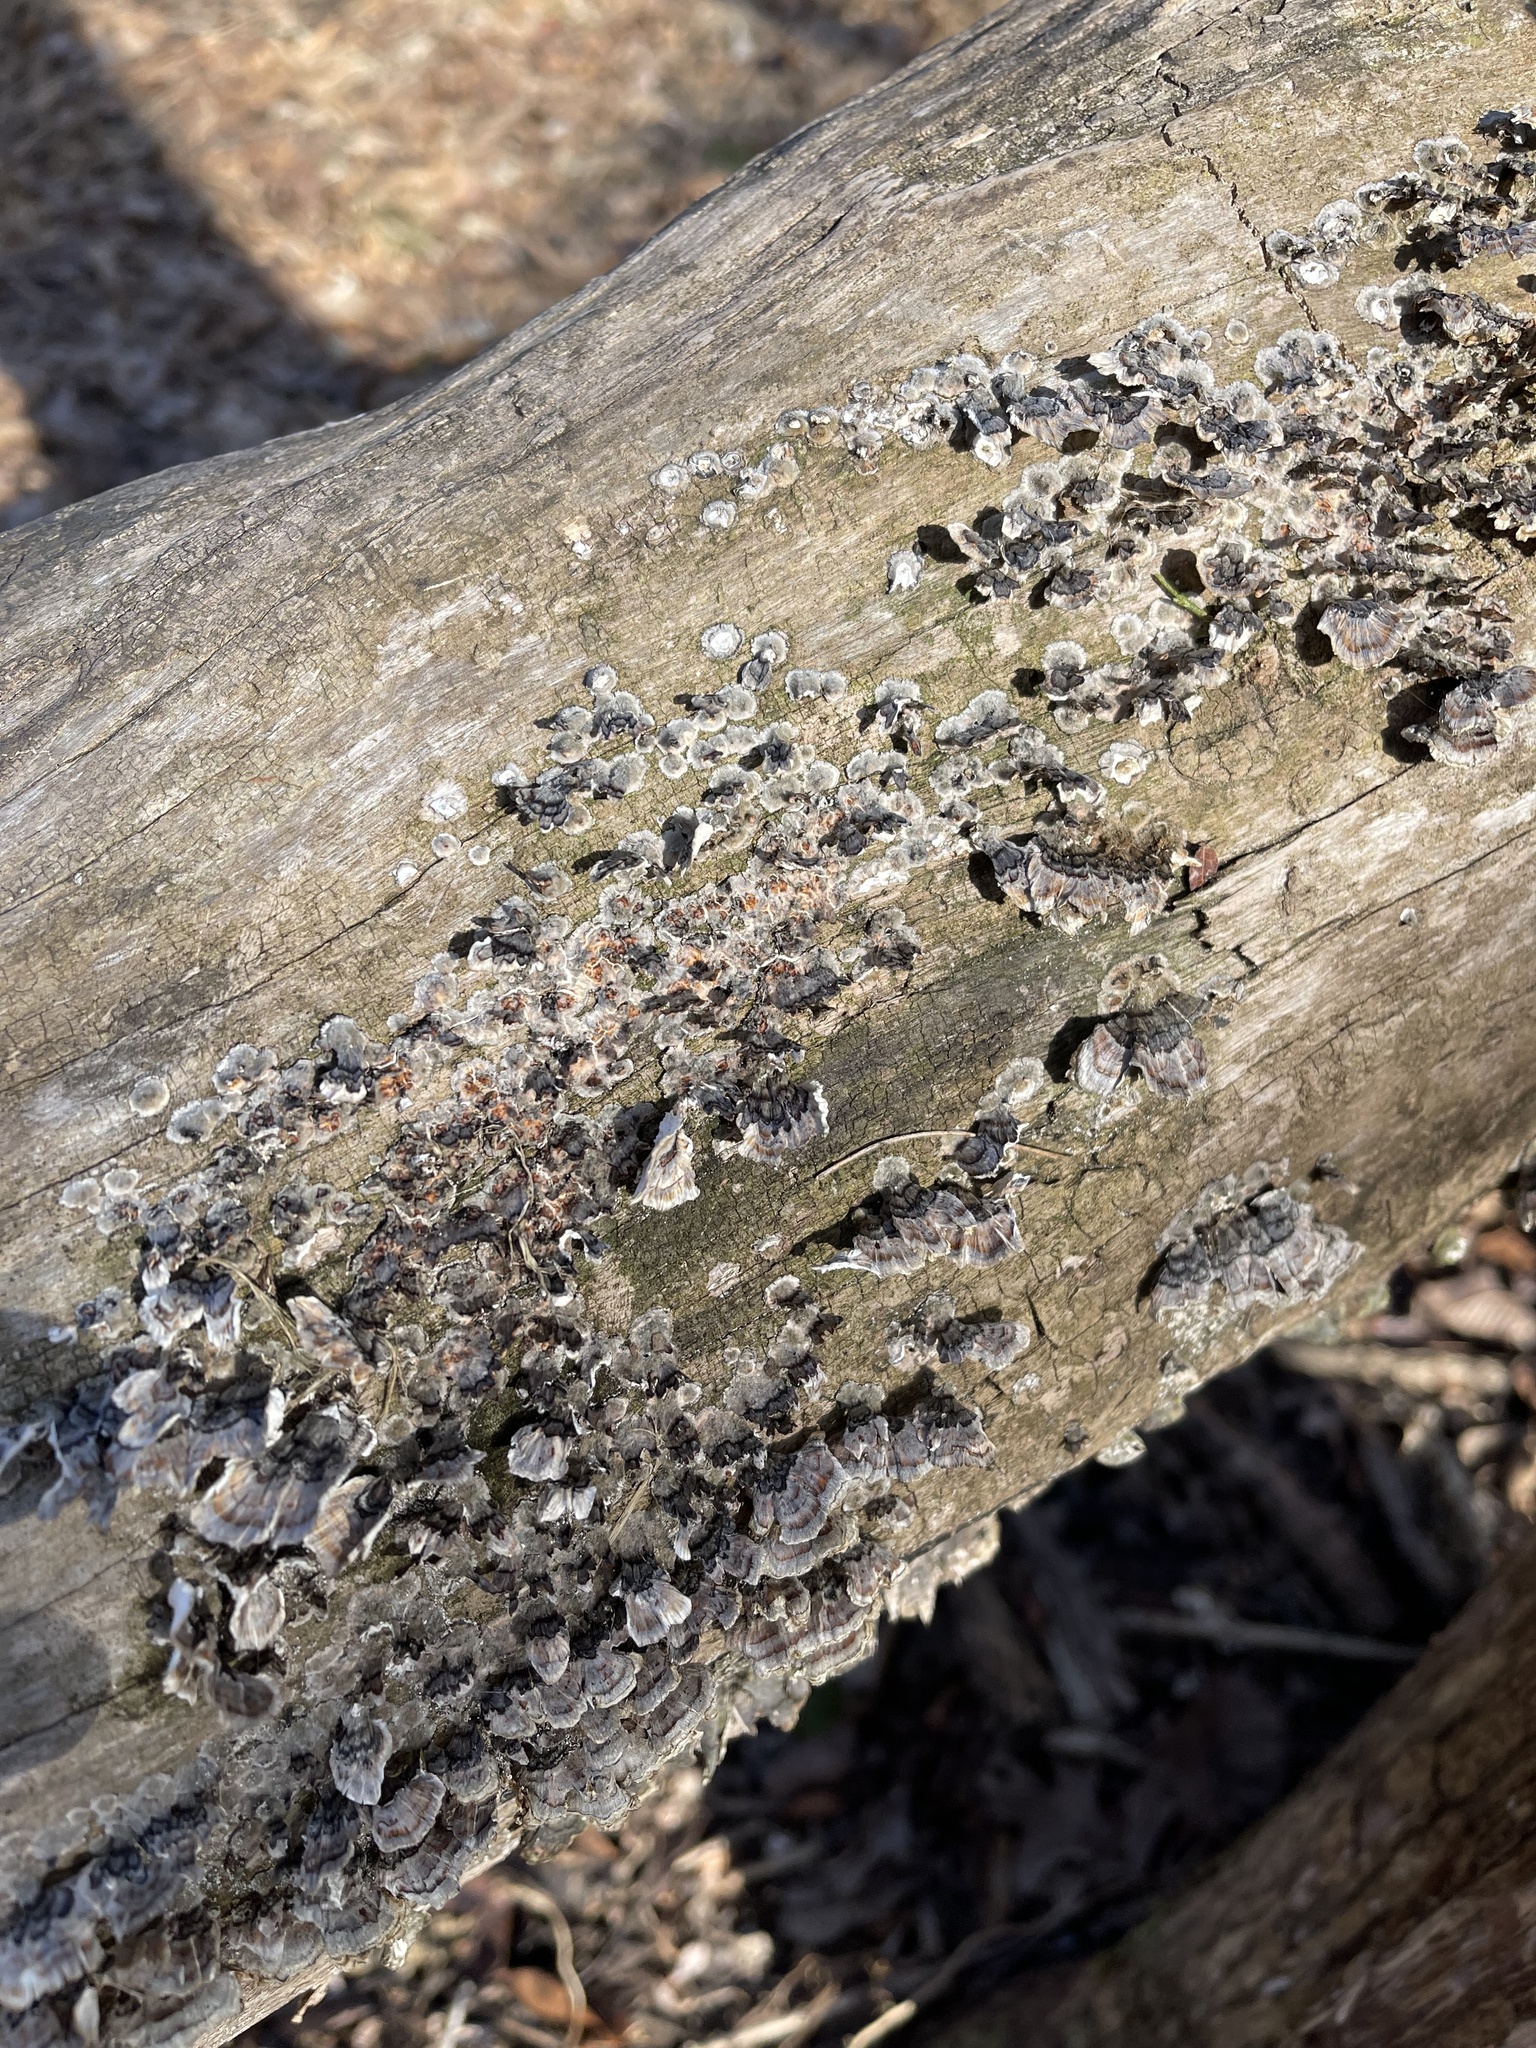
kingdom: Fungi
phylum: Basidiomycota
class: Agaricomycetes
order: Polyporales
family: Polyporaceae
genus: Trametes
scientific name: Trametes versicolor
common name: Turkeytail
